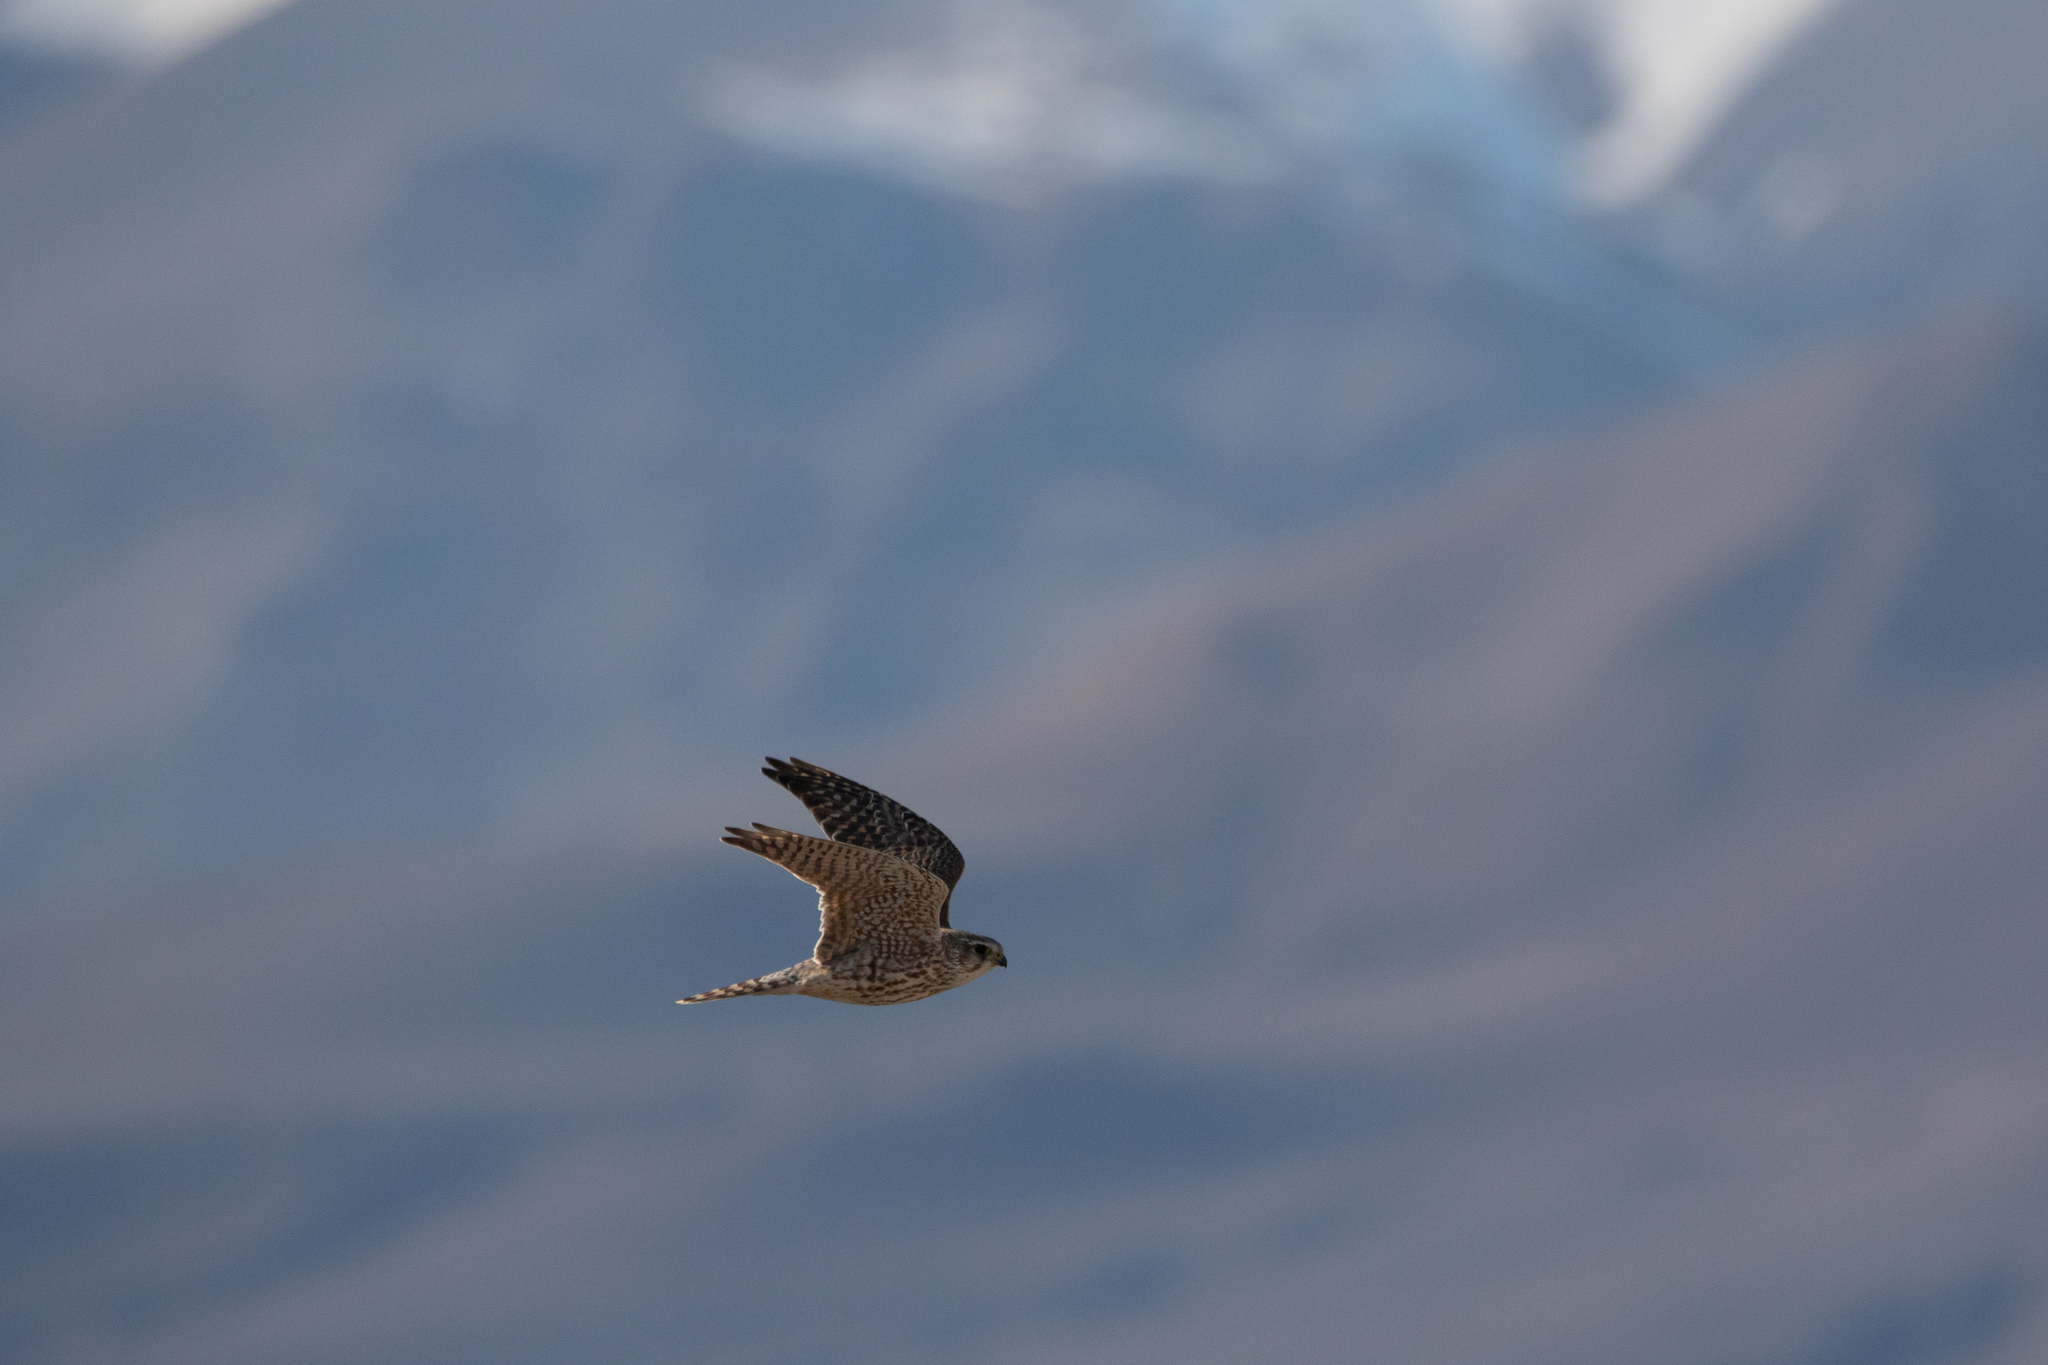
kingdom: Animalia
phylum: Chordata
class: Aves
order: Falconiformes
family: Falconidae
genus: Falco
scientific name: Falco columbarius
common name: Merlin
